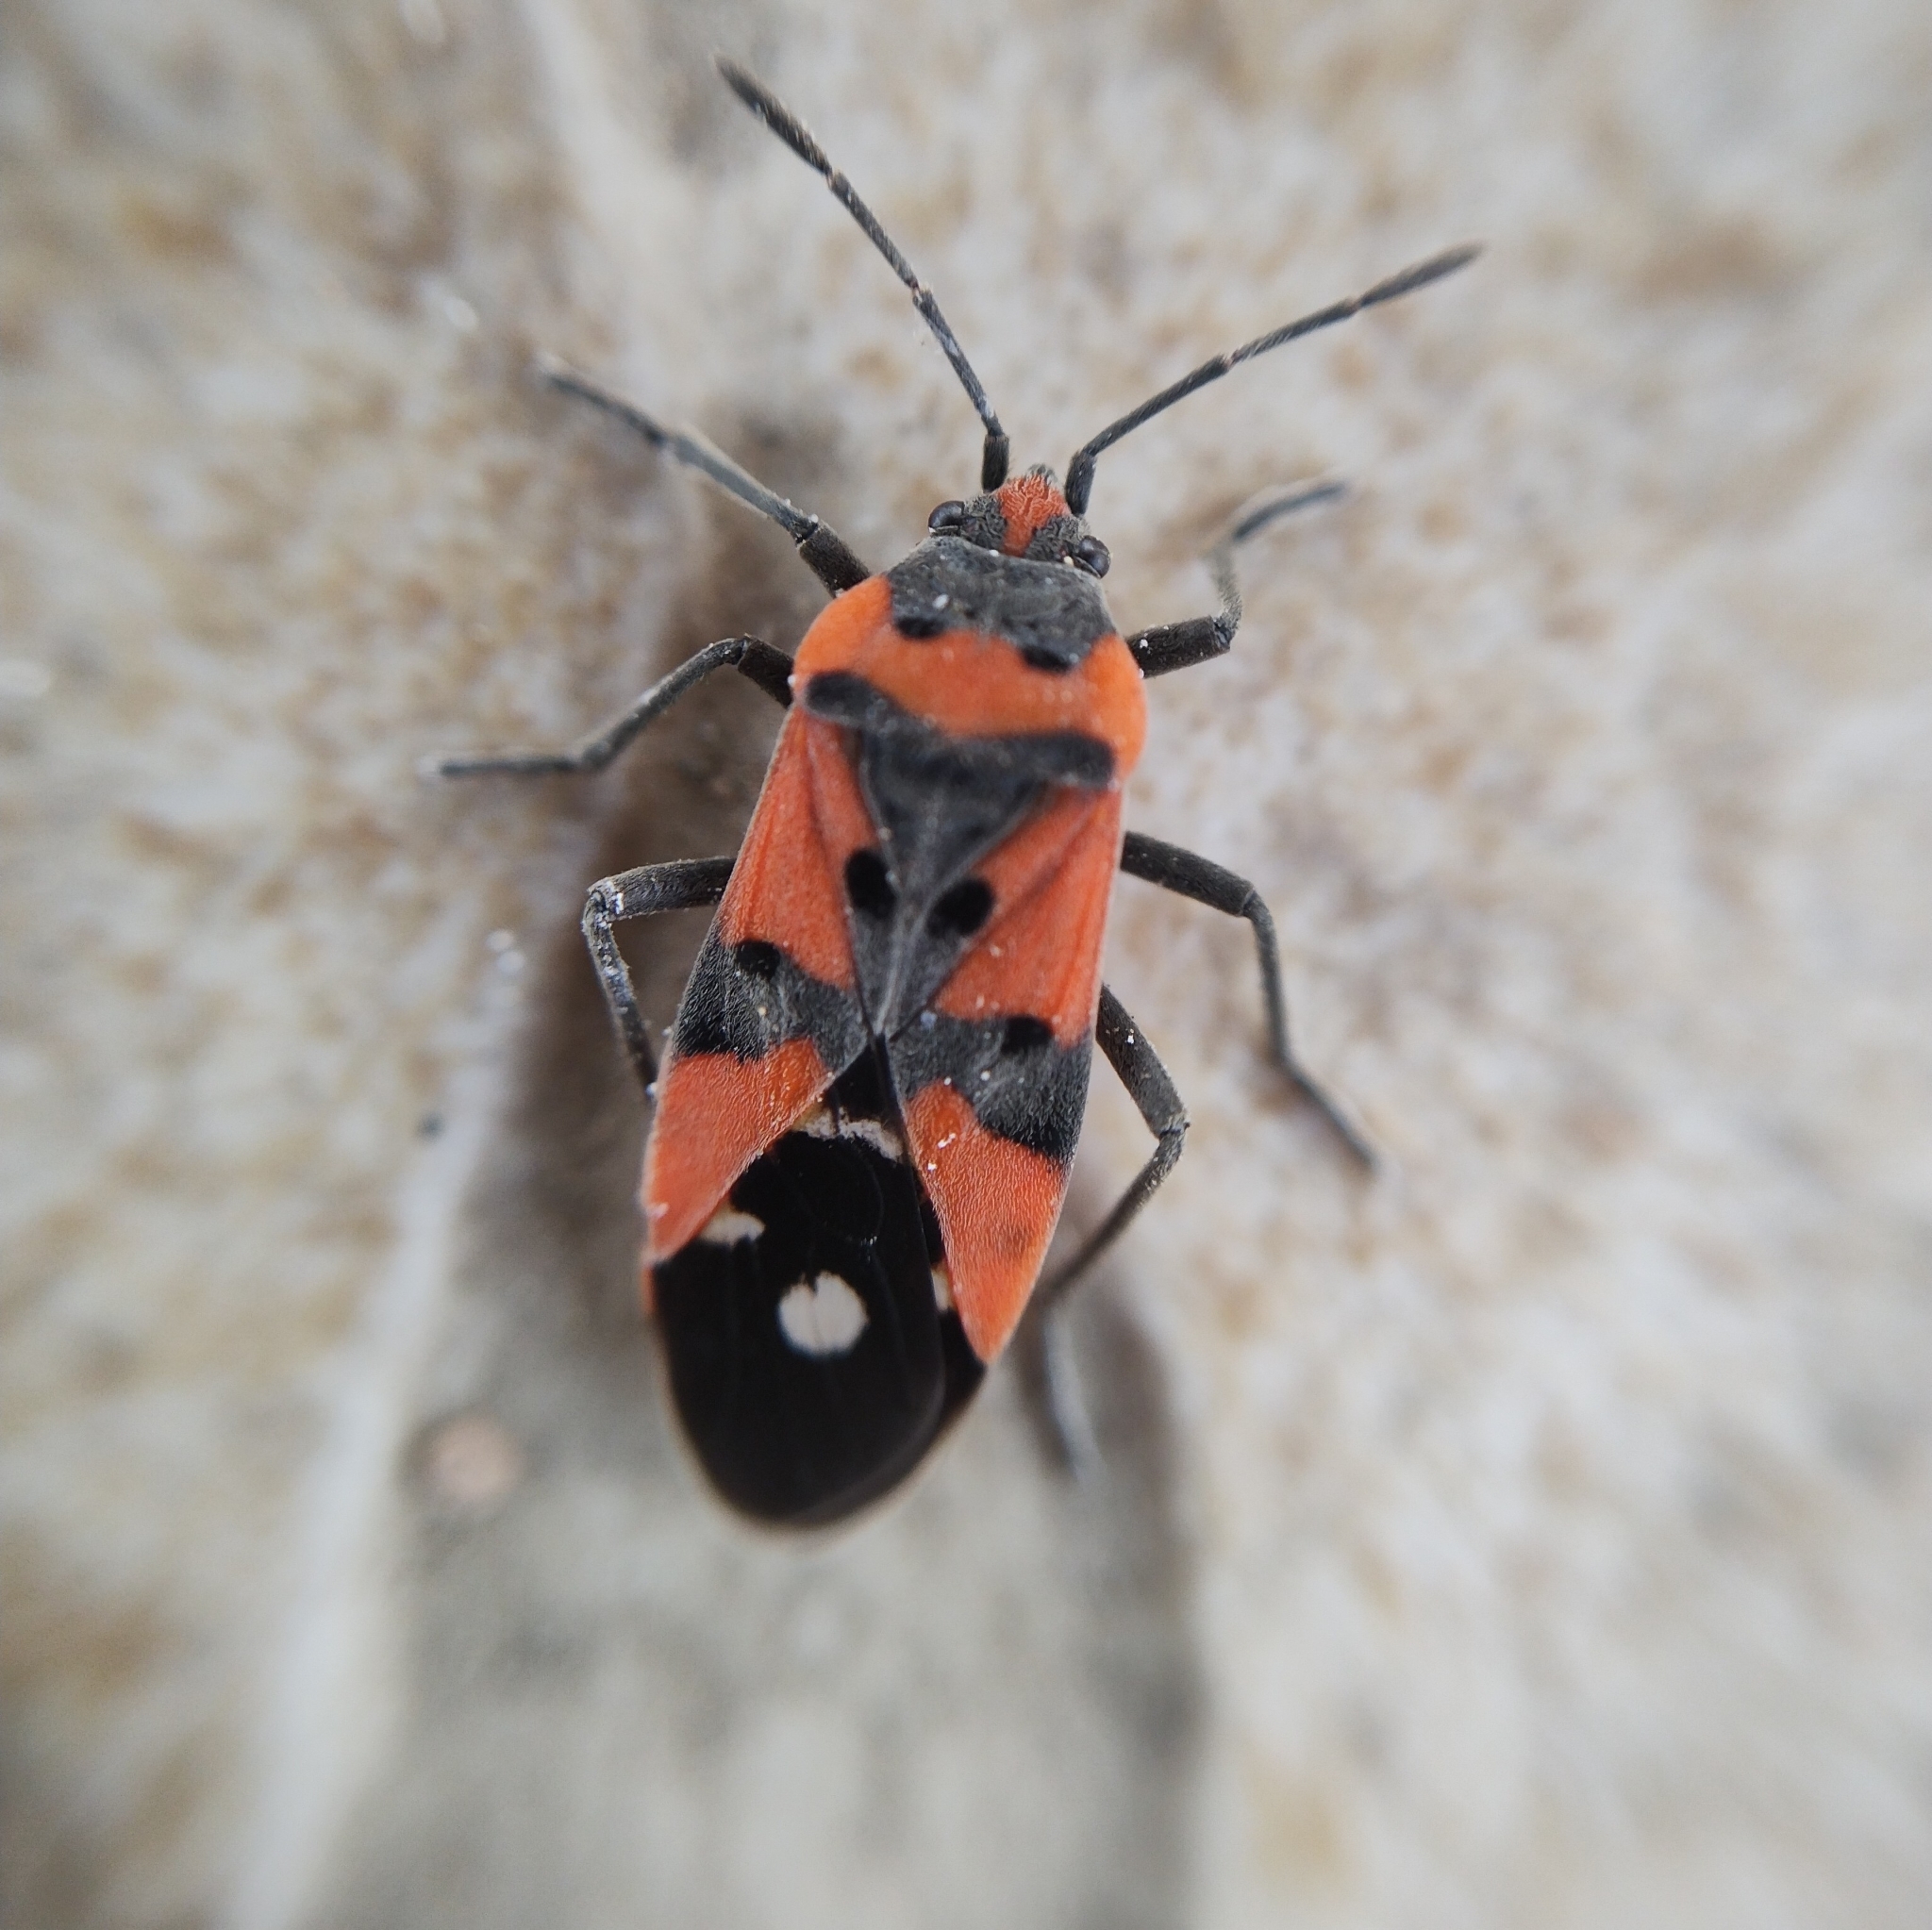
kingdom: Animalia
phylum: Arthropoda
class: Insecta
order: Hemiptera
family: Lygaeidae
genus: Lygaeus
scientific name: Lygaeus equestris
